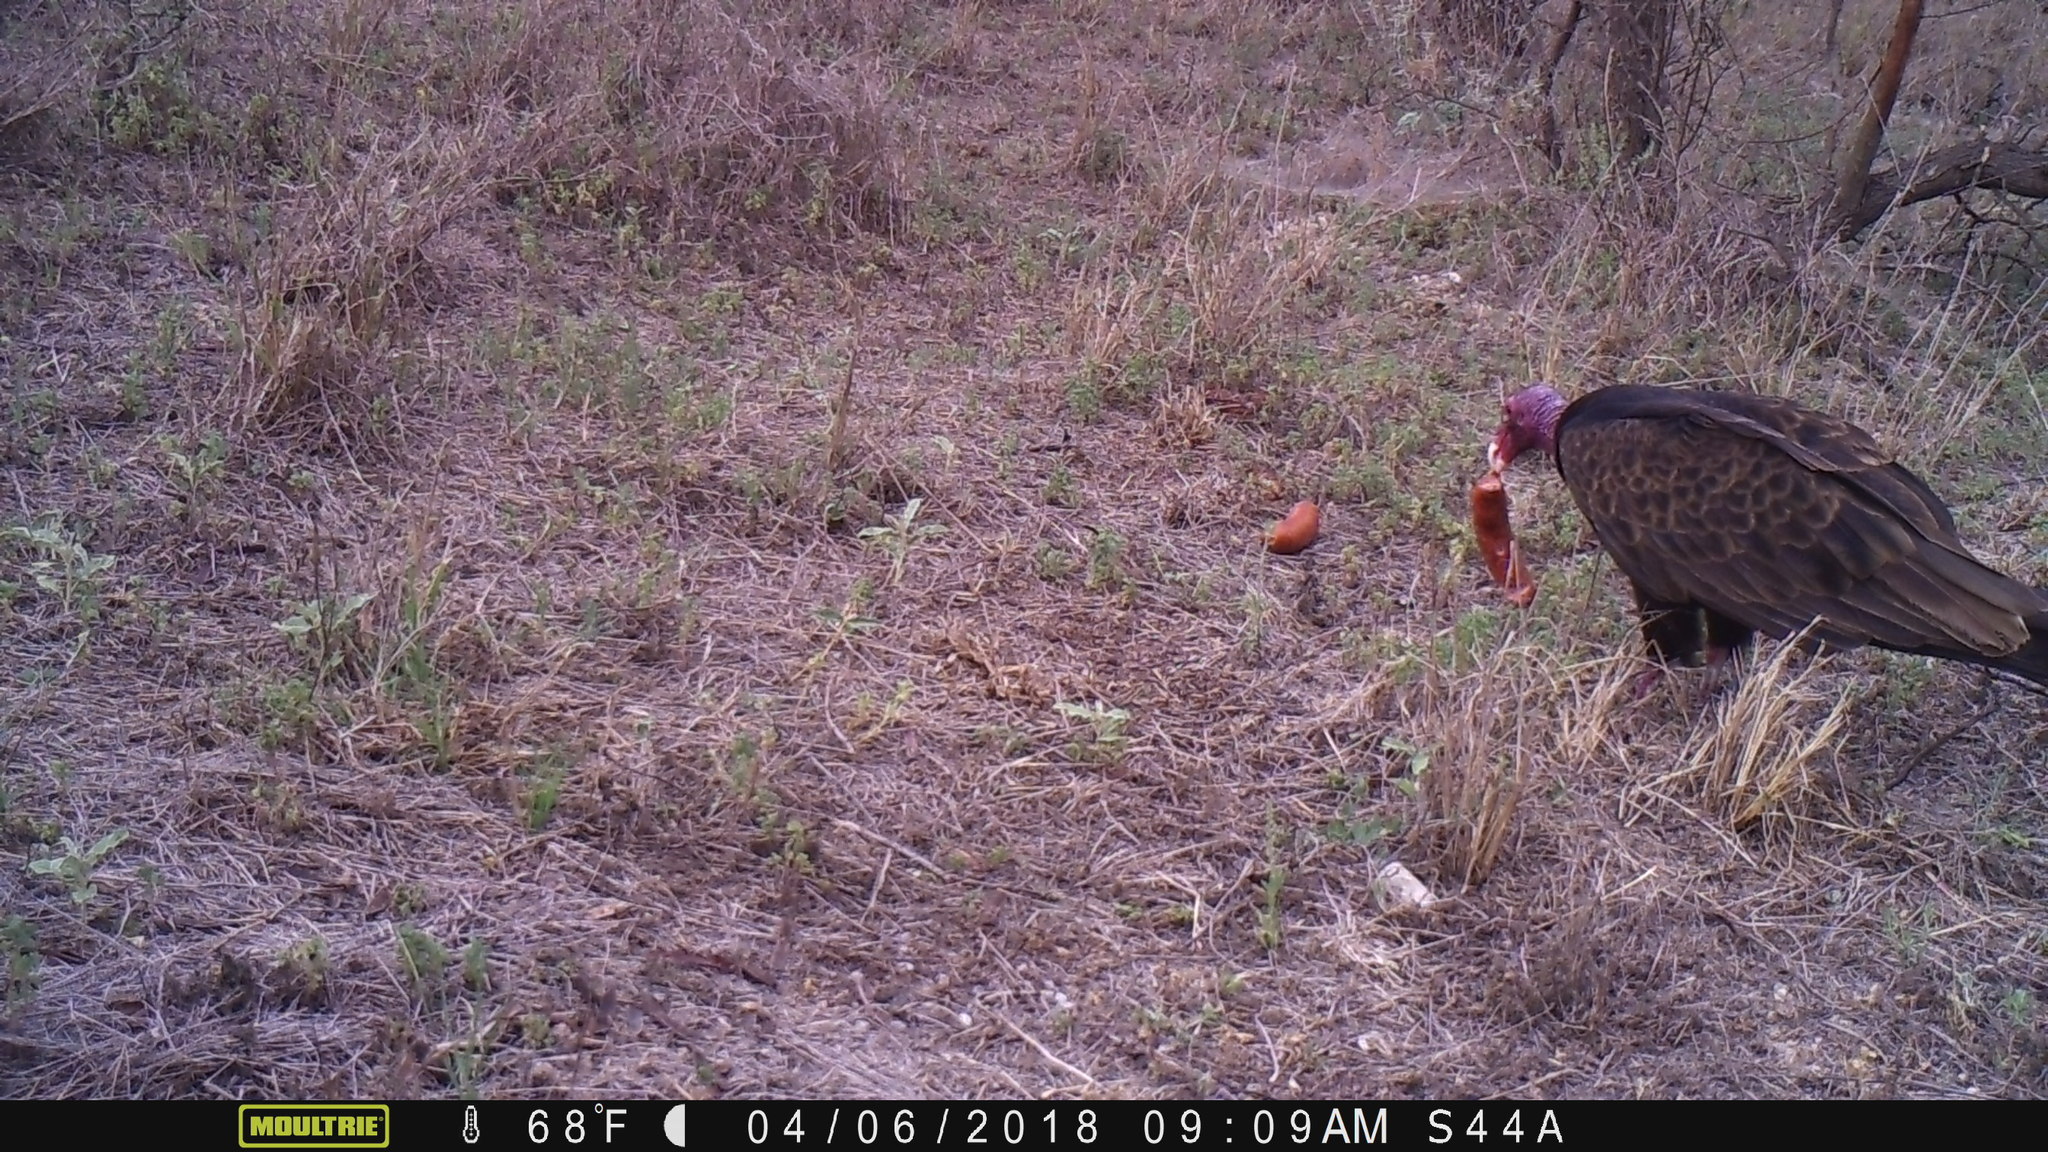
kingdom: Animalia
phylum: Chordata
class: Aves
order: Accipitriformes
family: Cathartidae
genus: Cathartes
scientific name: Cathartes aura
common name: Turkey vulture
